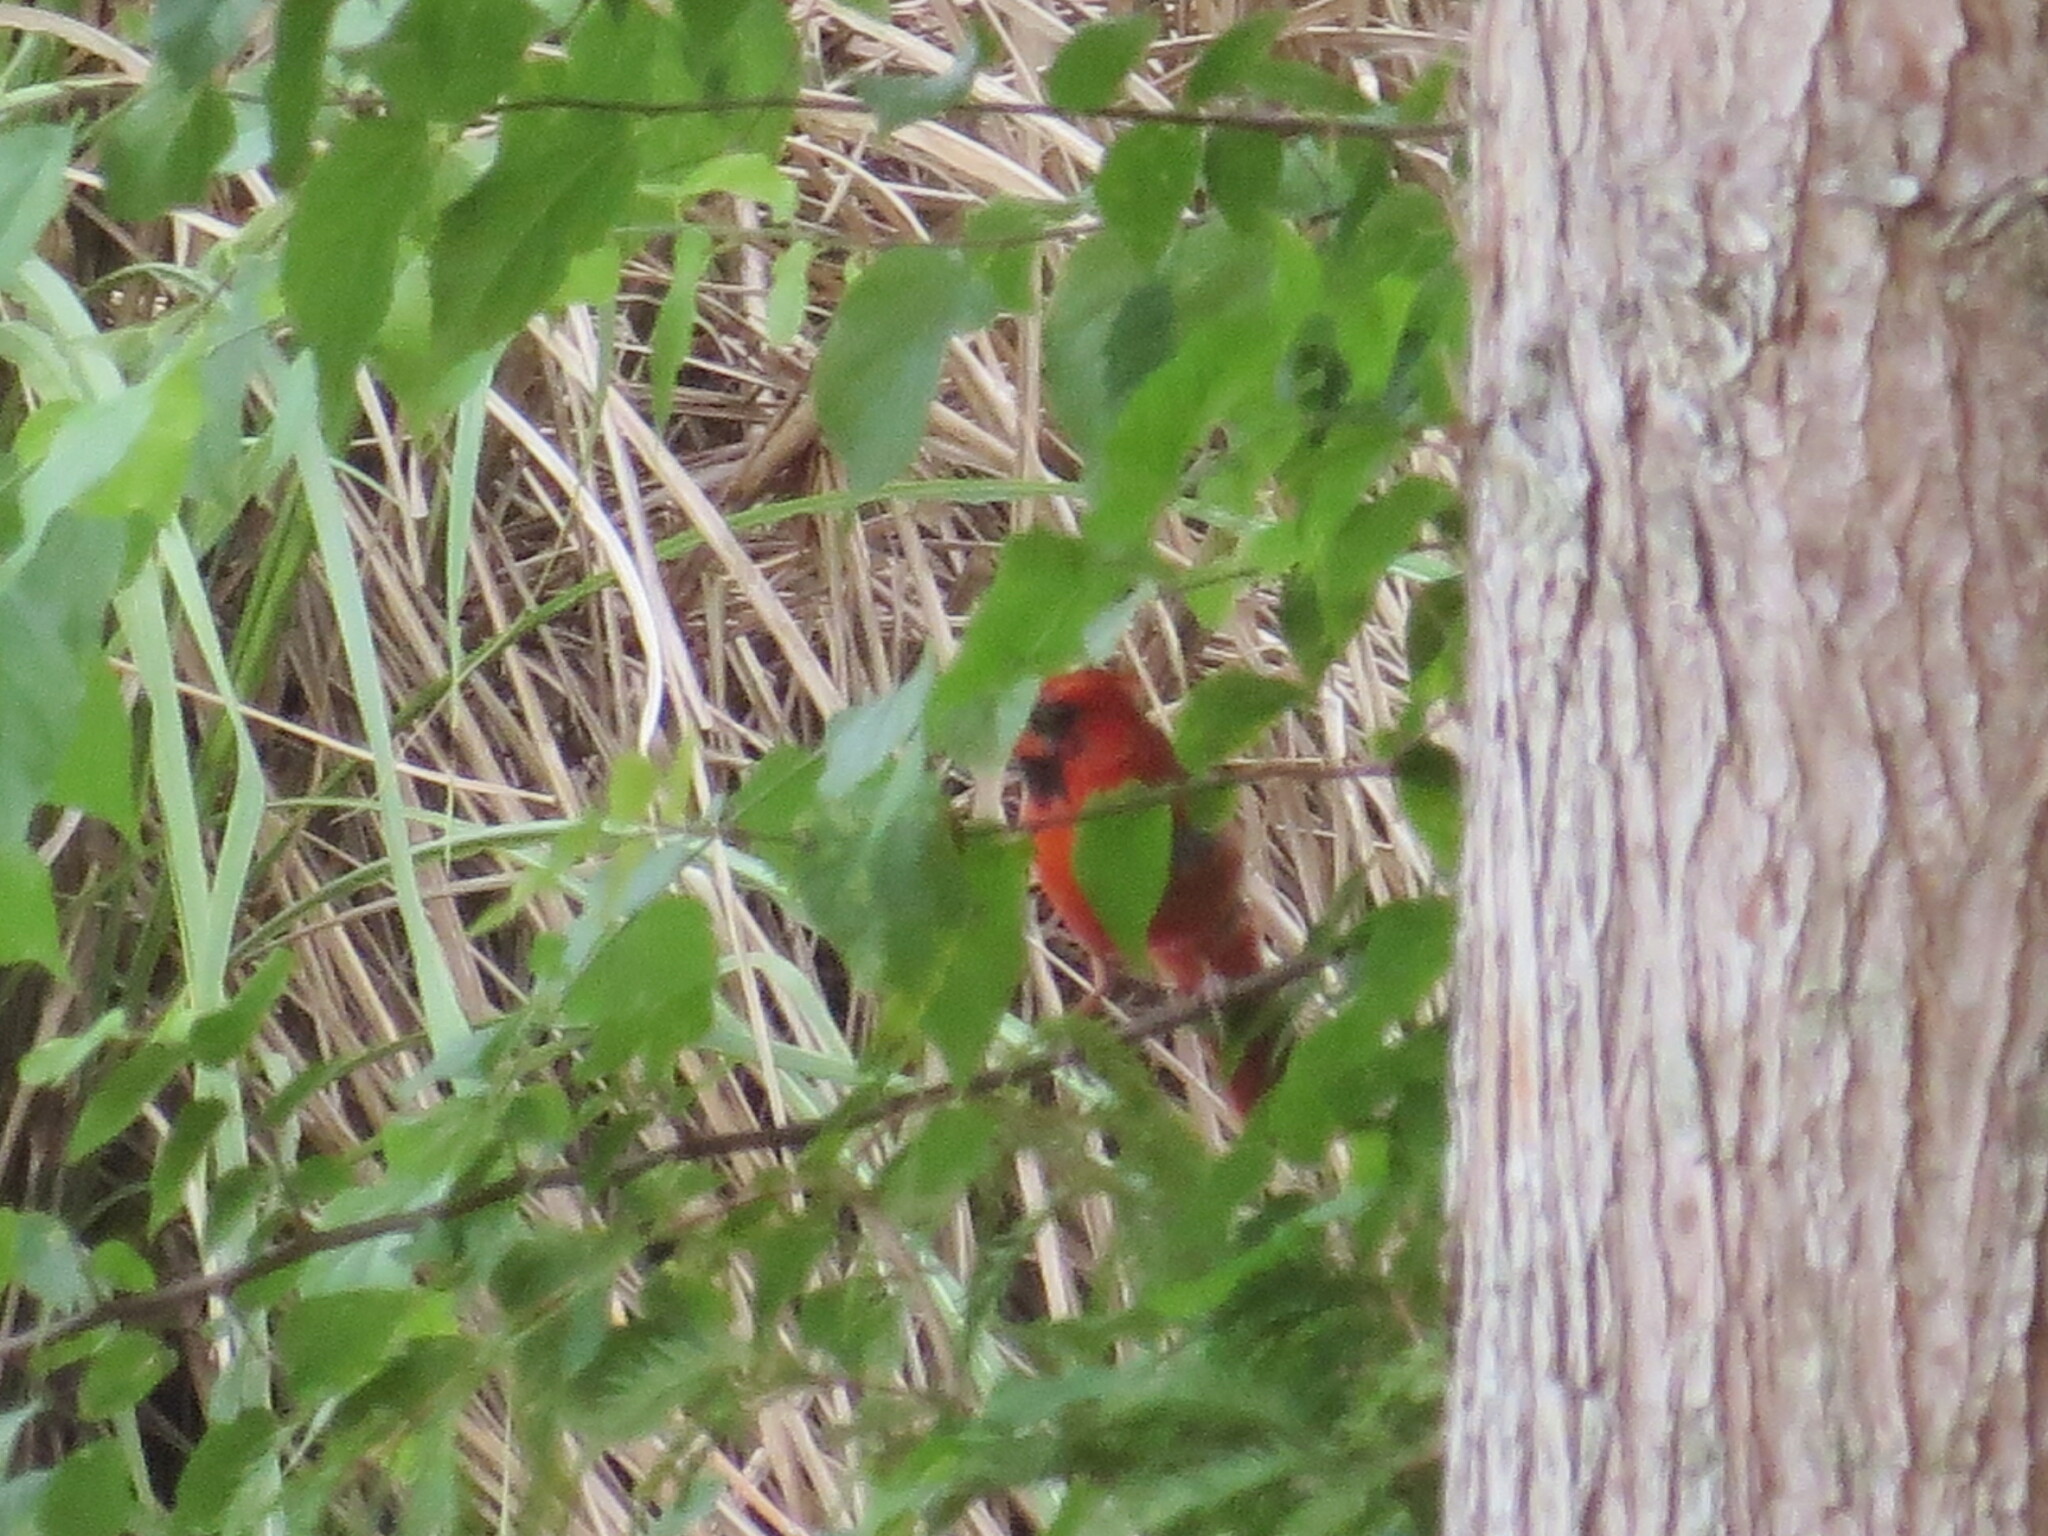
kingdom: Animalia
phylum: Chordata
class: Aves
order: Passeriformes
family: Cardinalidae
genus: Cardinalis
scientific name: Cardinalis cardinalis
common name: Northern cardinal
